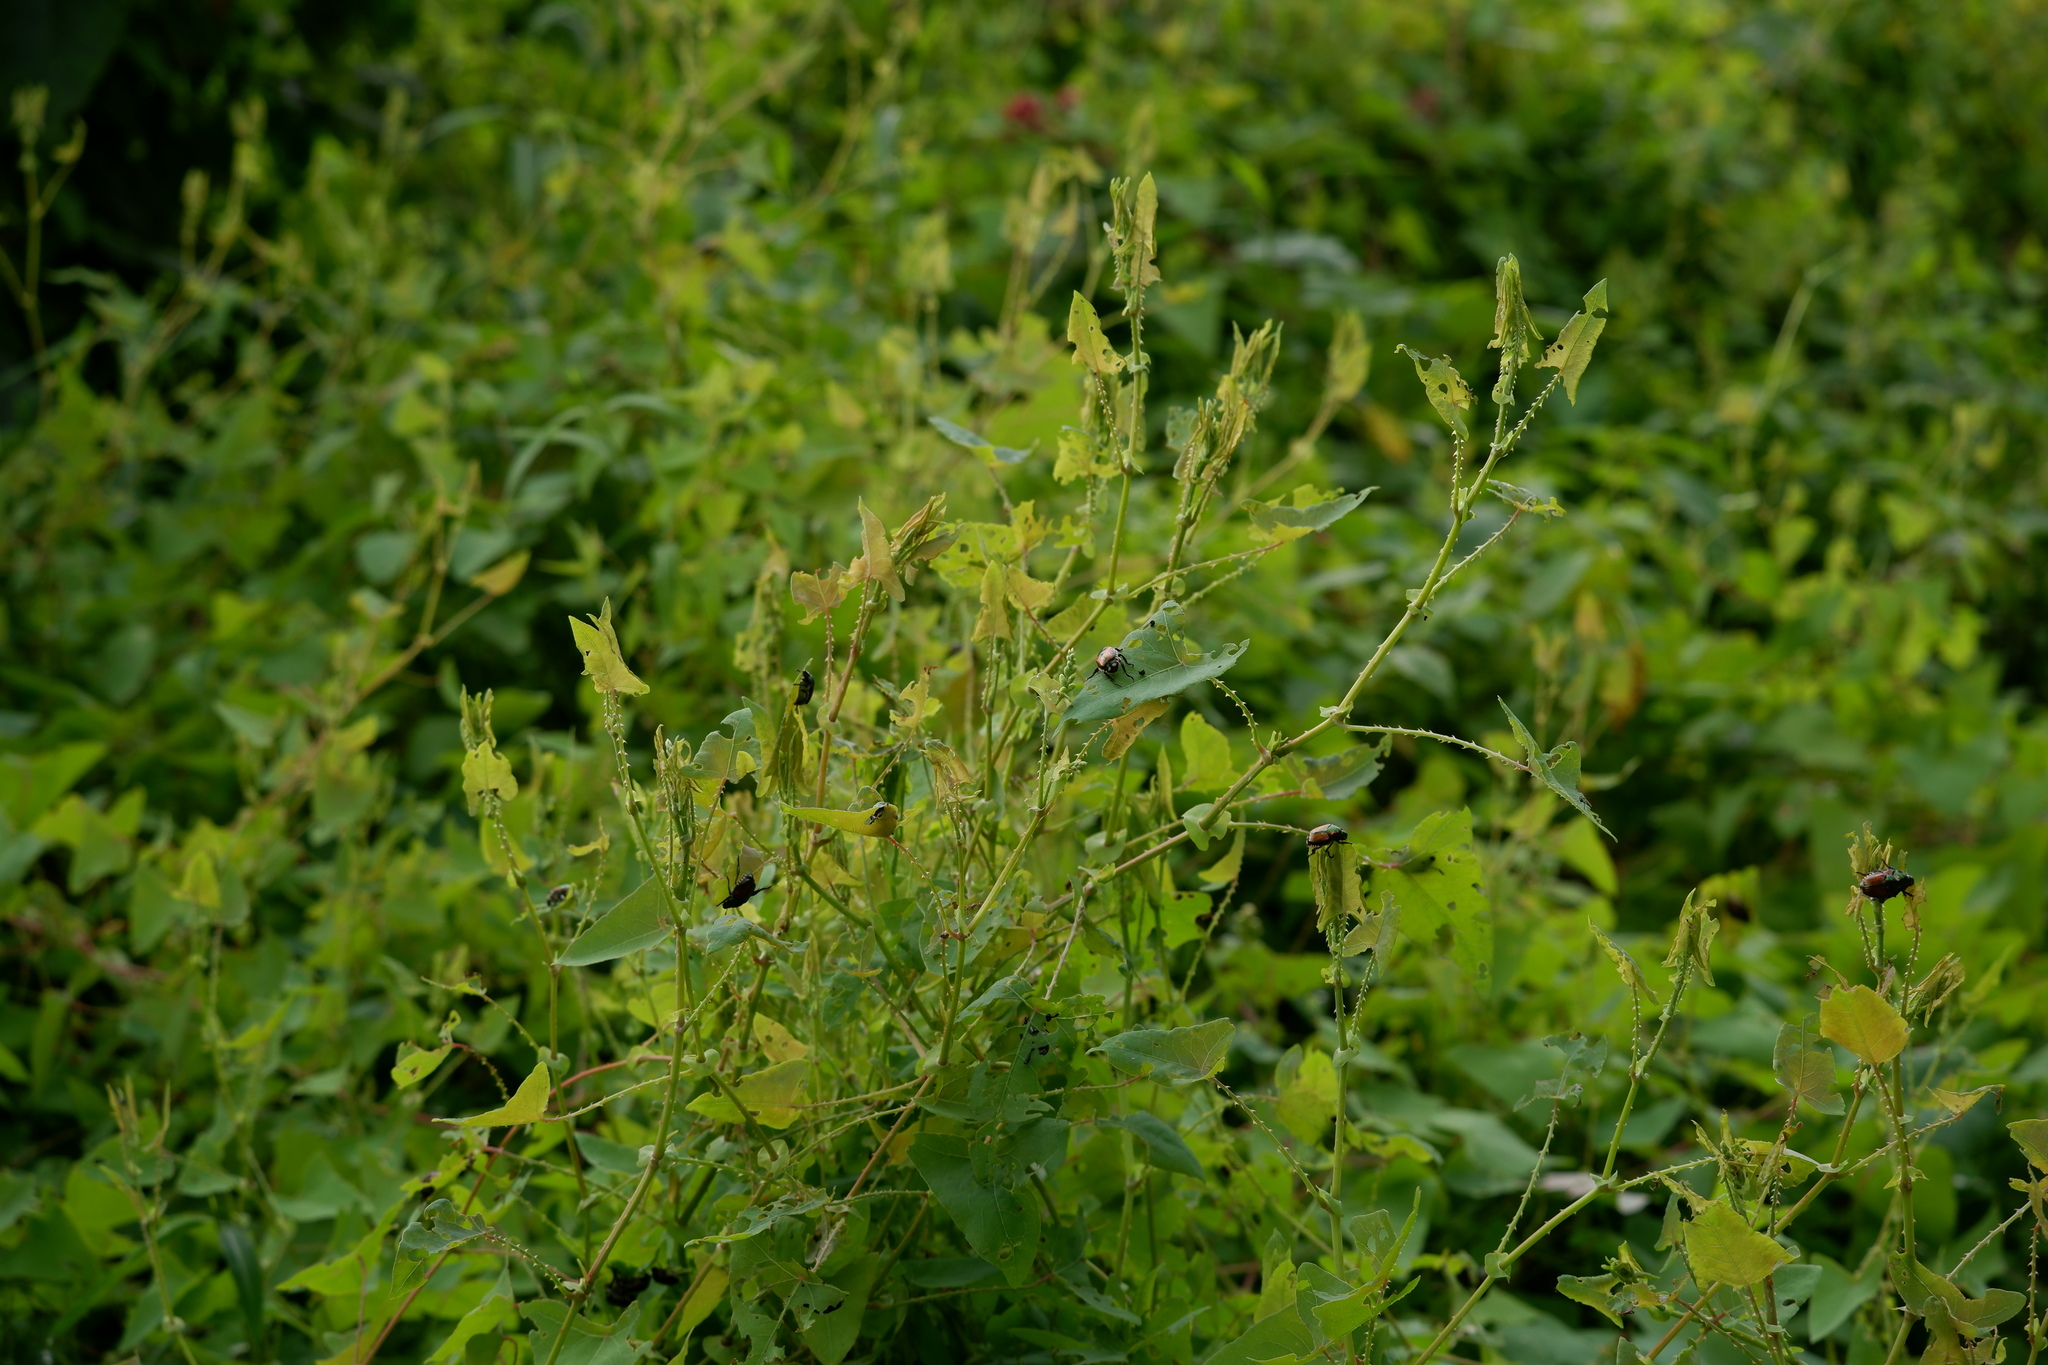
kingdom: Plantae
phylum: Tracheophyta
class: Magnoliopsida
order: Caryophyllales
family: Polygonaceae
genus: Persicaria
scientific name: Persicaria perfoliata
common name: Asiatic tearthumb
